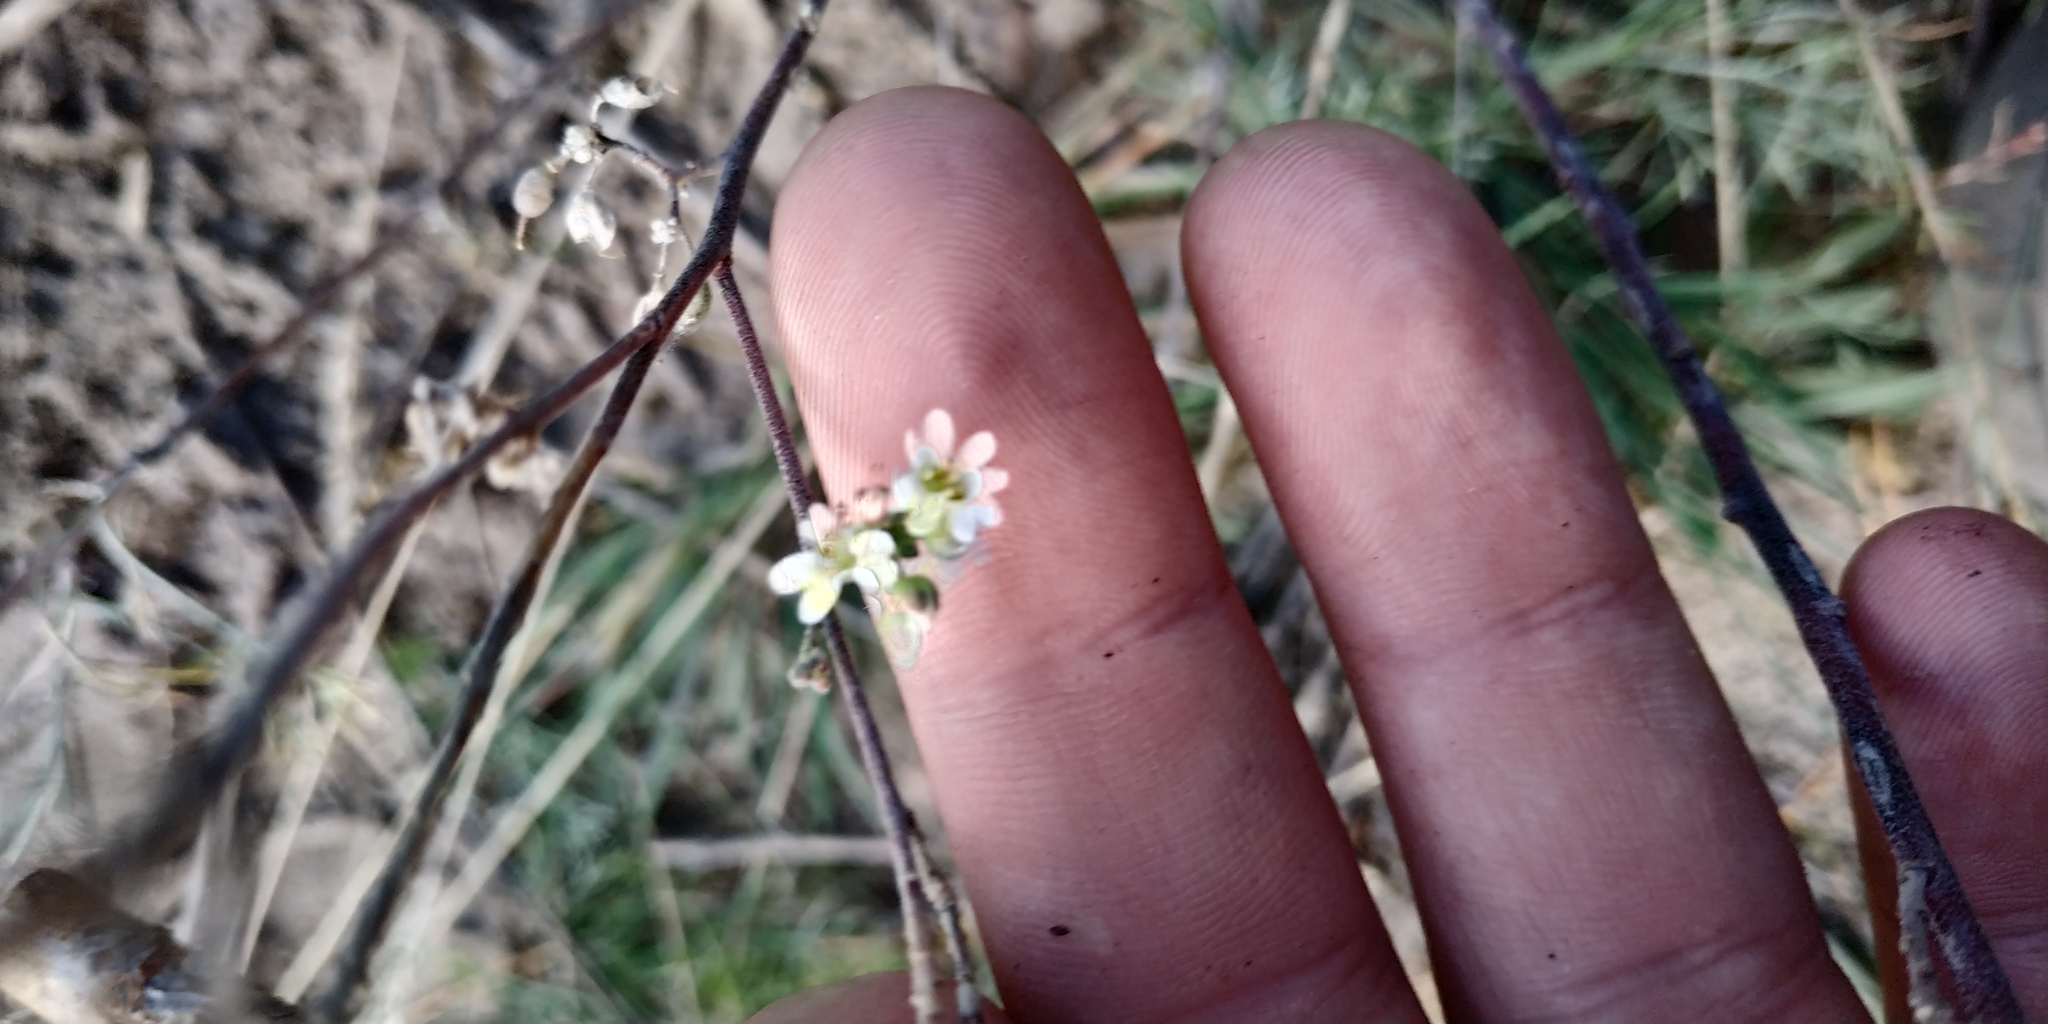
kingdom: Plantae
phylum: Tracheophyta
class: Magnoliopsida
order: Brassicales
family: Brassicaceae
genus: Berteroa
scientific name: Berteroa incana
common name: Hoary alison
